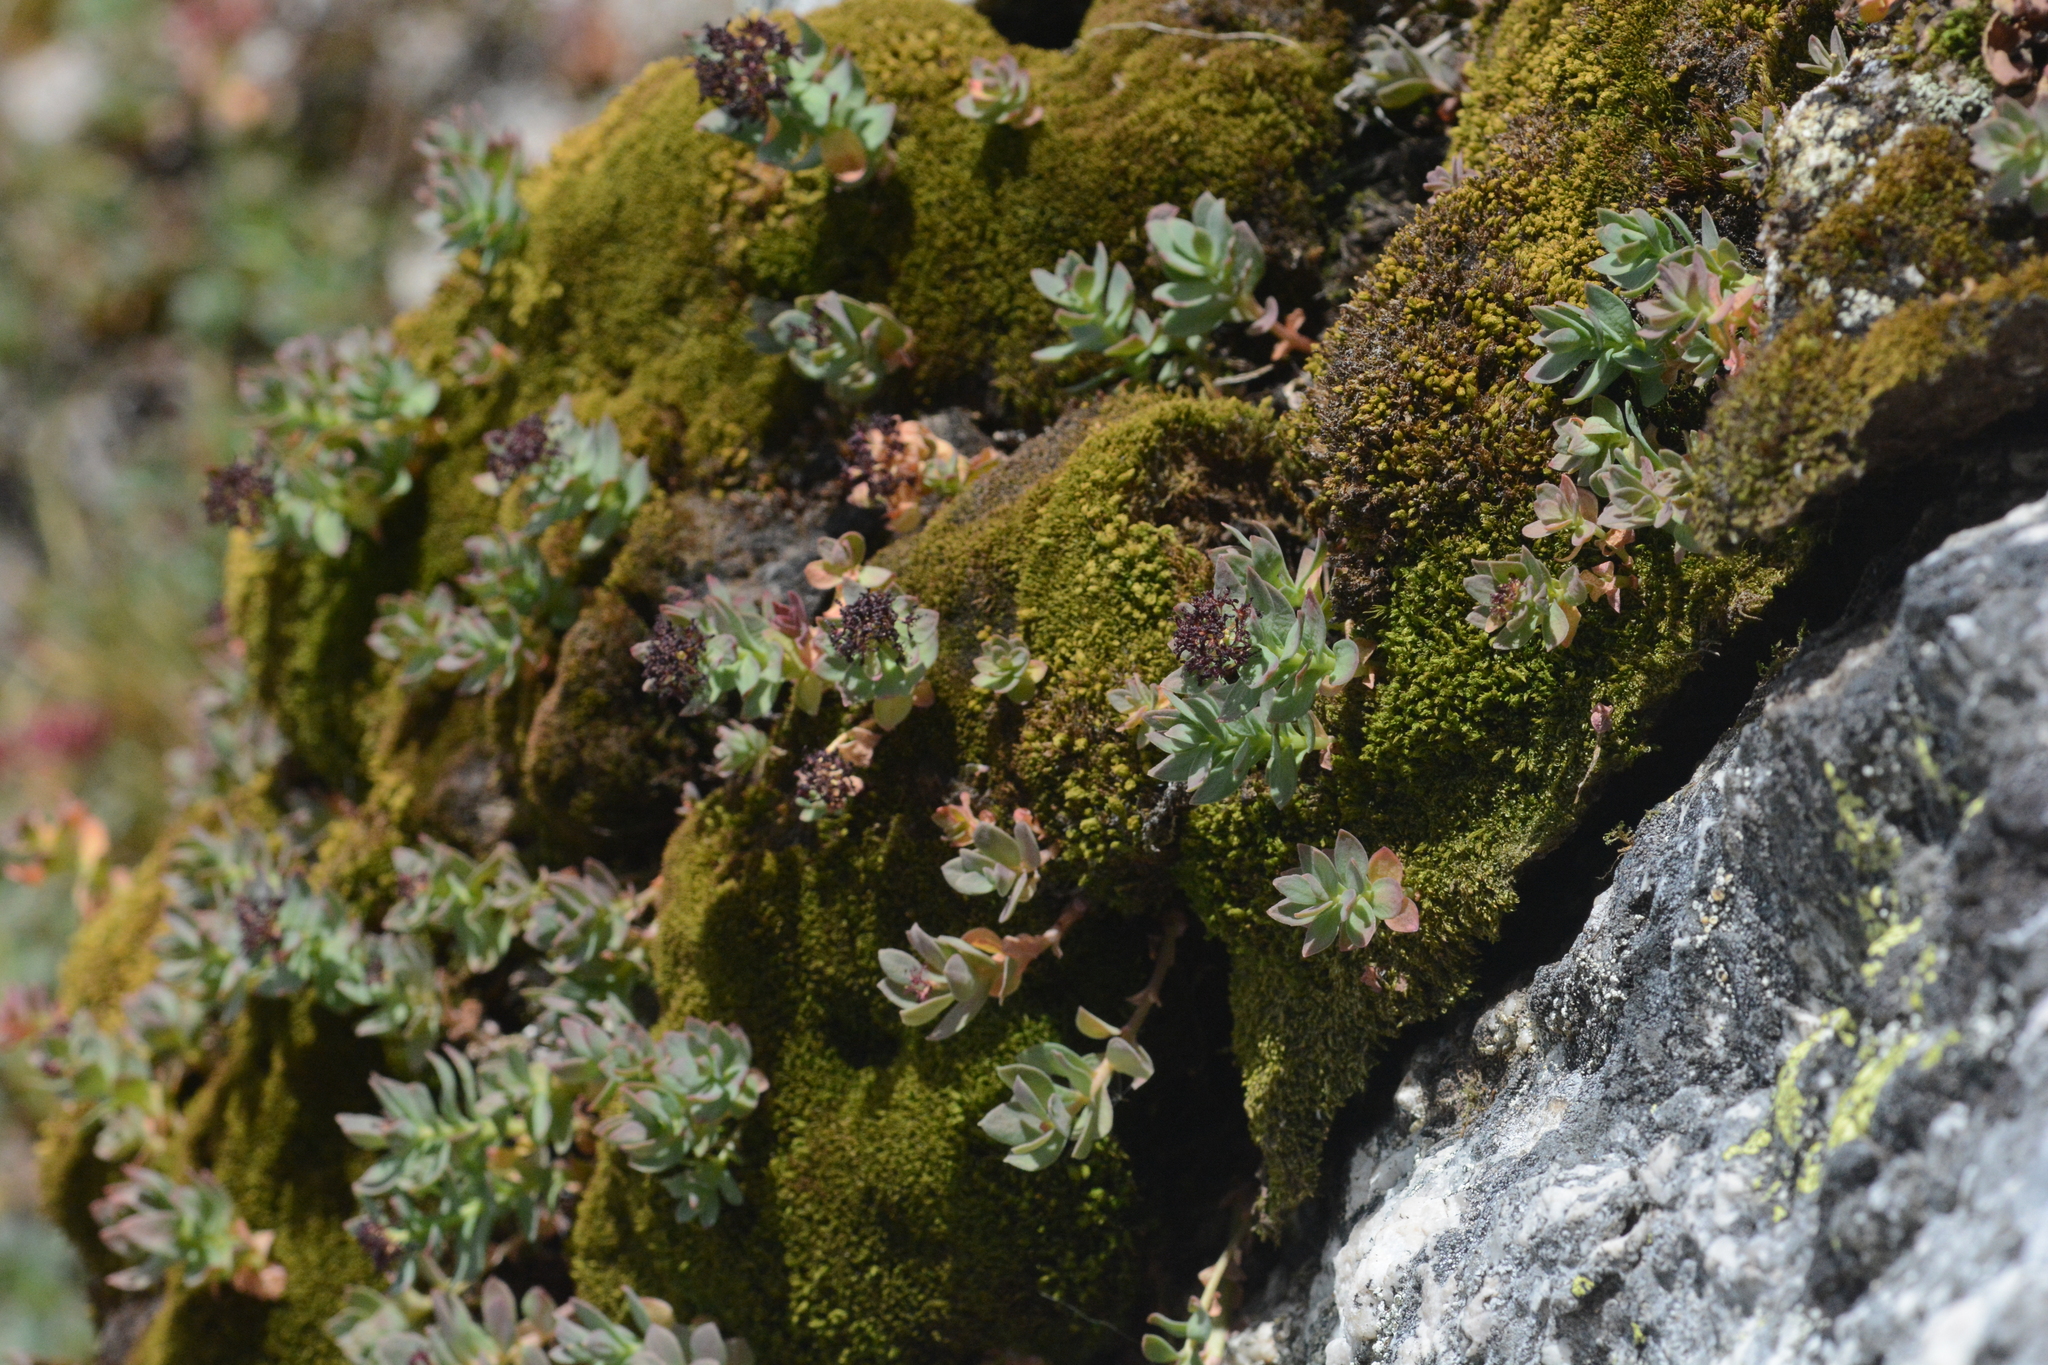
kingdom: Plantae
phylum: Tracheophyta
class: Magnoliopsida
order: Saxifragales
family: Crassulaceae
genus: Rhodiola
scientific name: Rhodiola integrifolia
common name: Western roseroot
